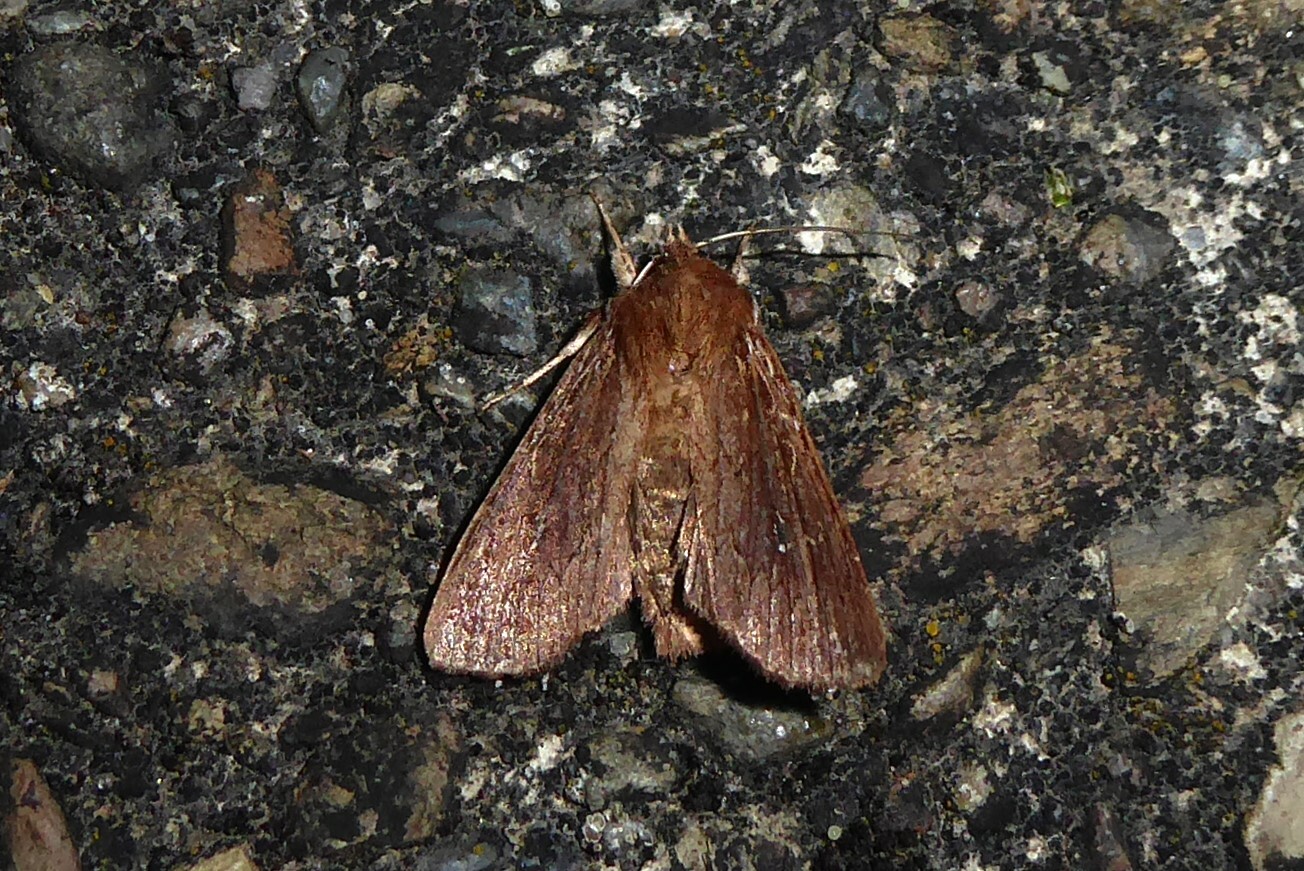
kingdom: Animalia
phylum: Arthropoda
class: Insecta
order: Lepidoptera
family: Noctuidae
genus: Ichneutica
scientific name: Ichneutica
